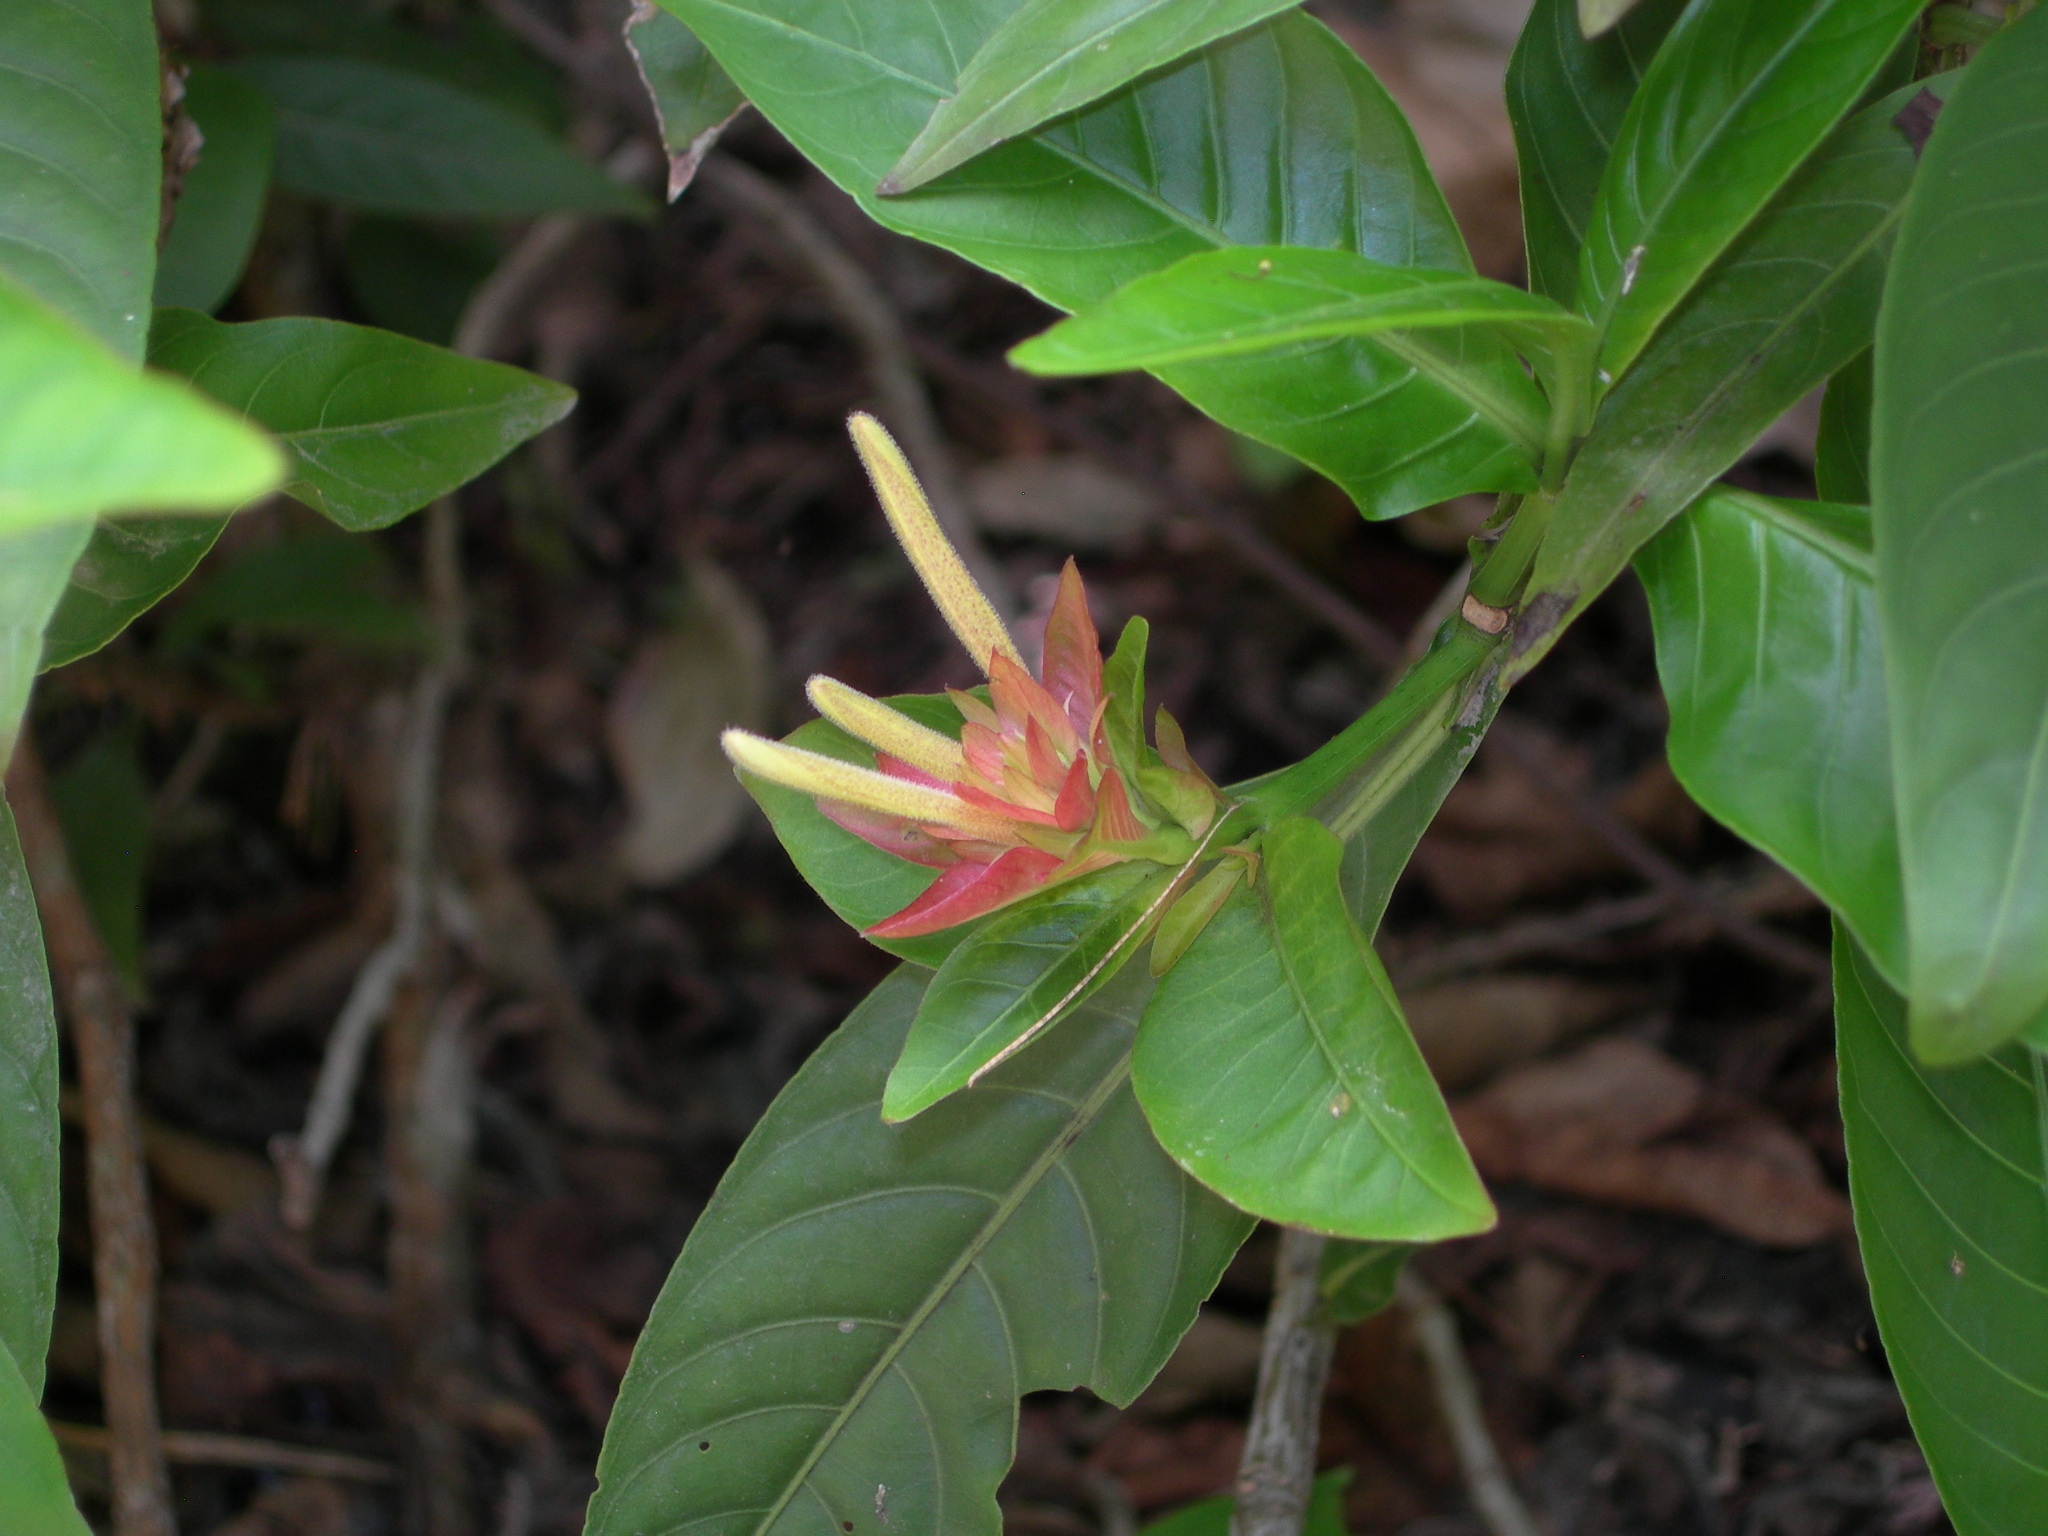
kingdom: Plantae
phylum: Tracheophyta
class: Magnoliopsida
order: Lamiales
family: Acanthaceae
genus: Justicia
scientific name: Justicia mirandae
